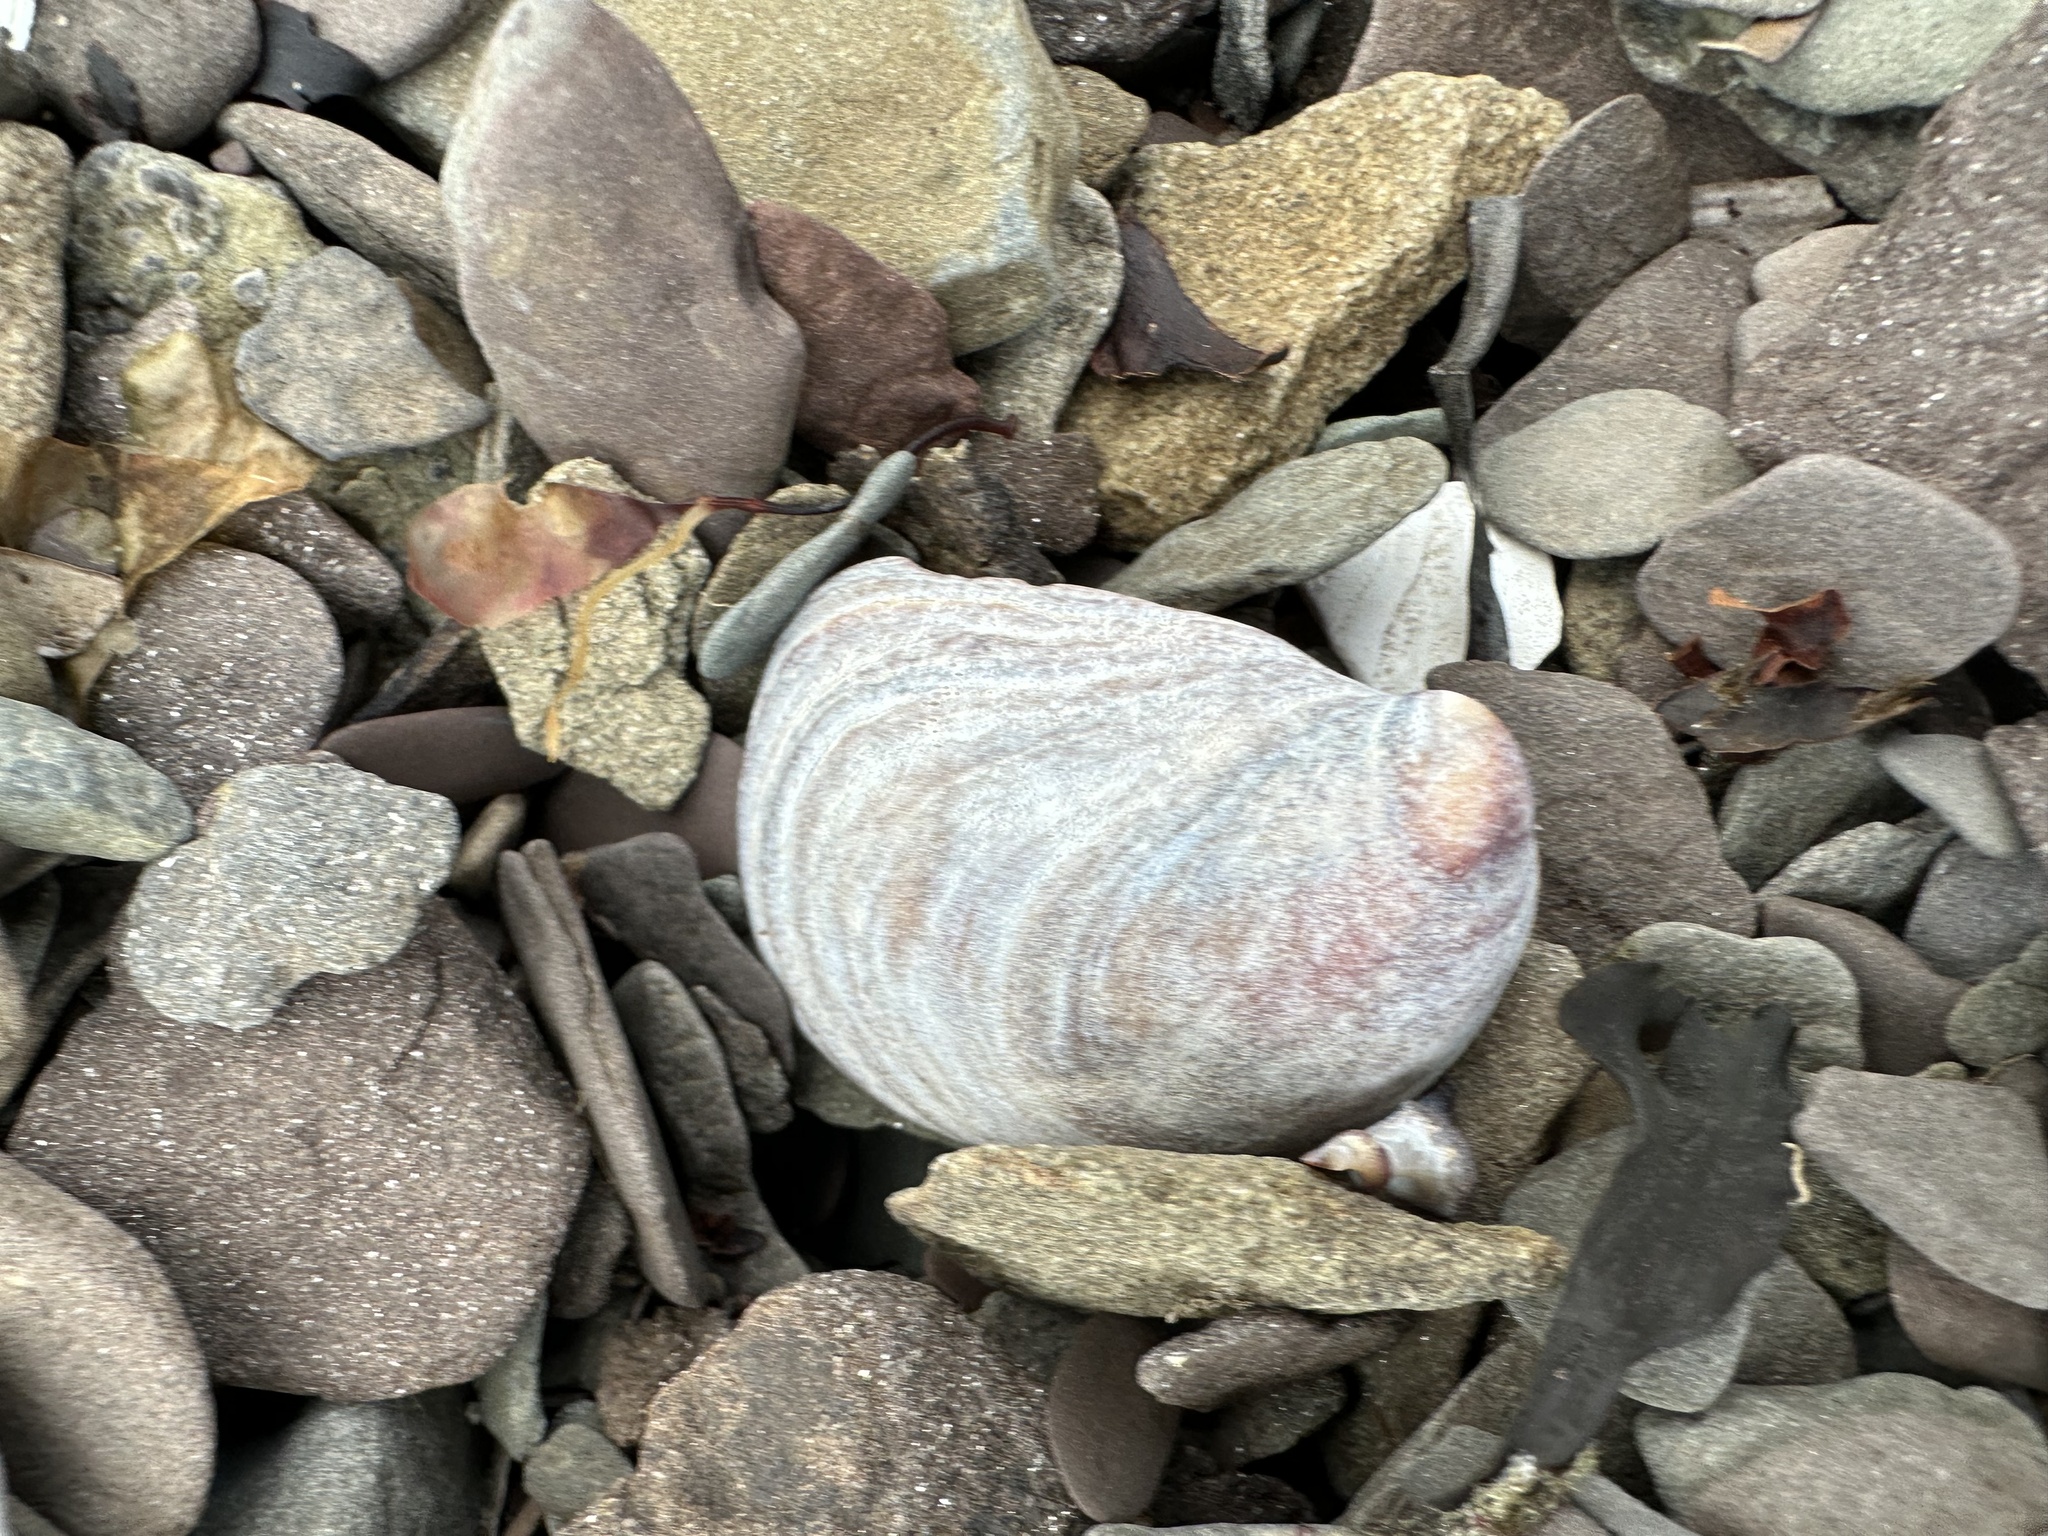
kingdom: Animalia
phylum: Mollusca
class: Gastropoda
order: Littorinimorpha
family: Calyptraeidae
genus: Crepidula
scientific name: Crepidula fornicata
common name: Slipper limpet
